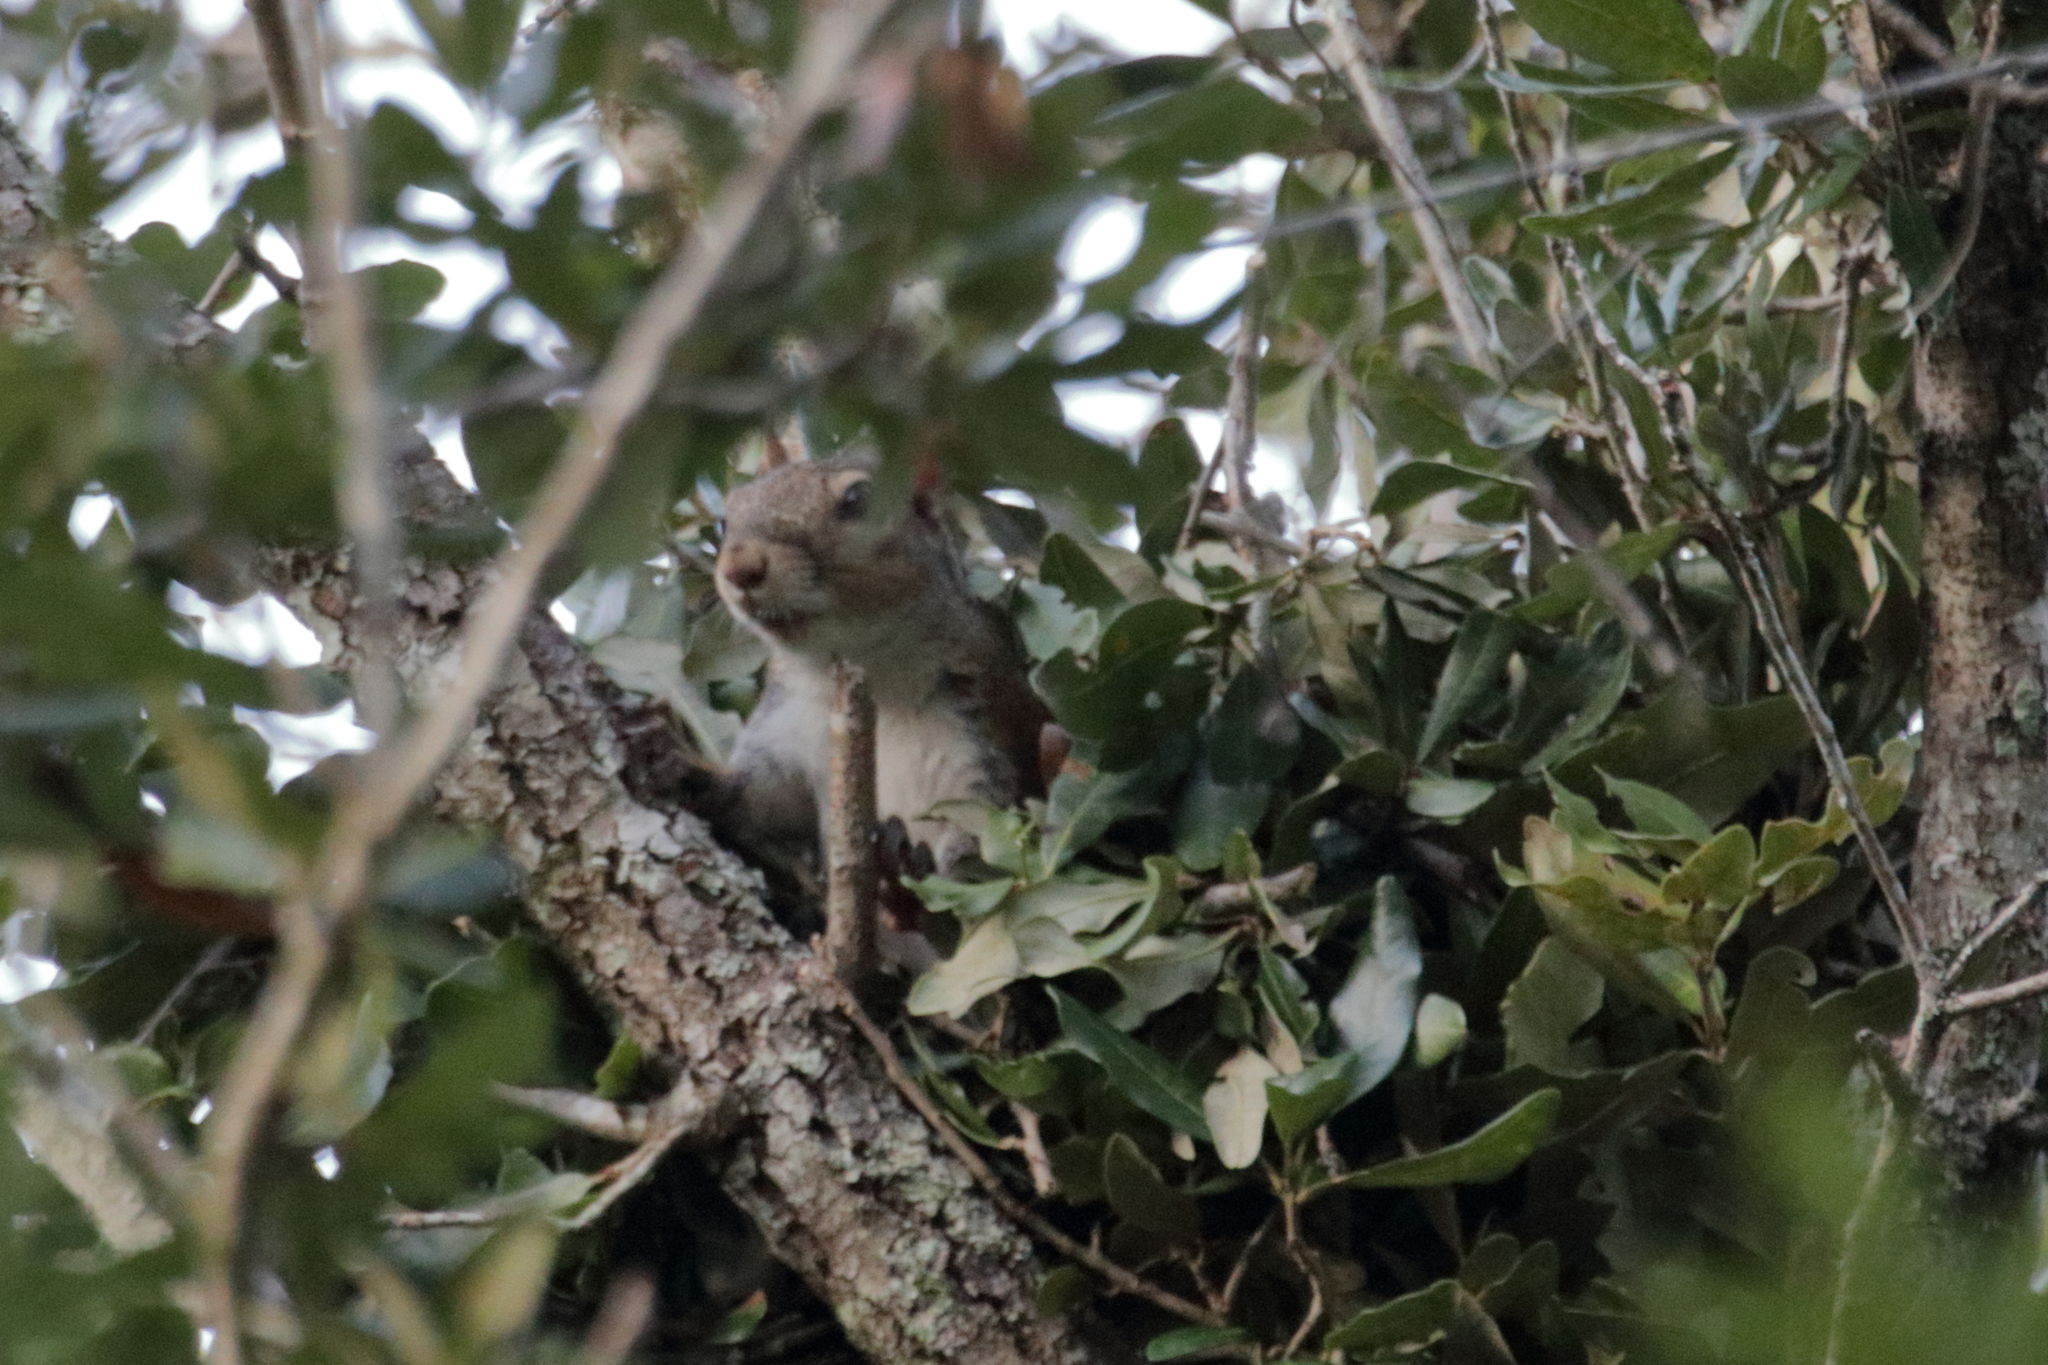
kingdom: Animalia
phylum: Chordata
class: Mammalia
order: Rodentia
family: Sciuridae
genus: Sciurus
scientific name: Sciurus carolinensis
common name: Eastern gray squirrel
